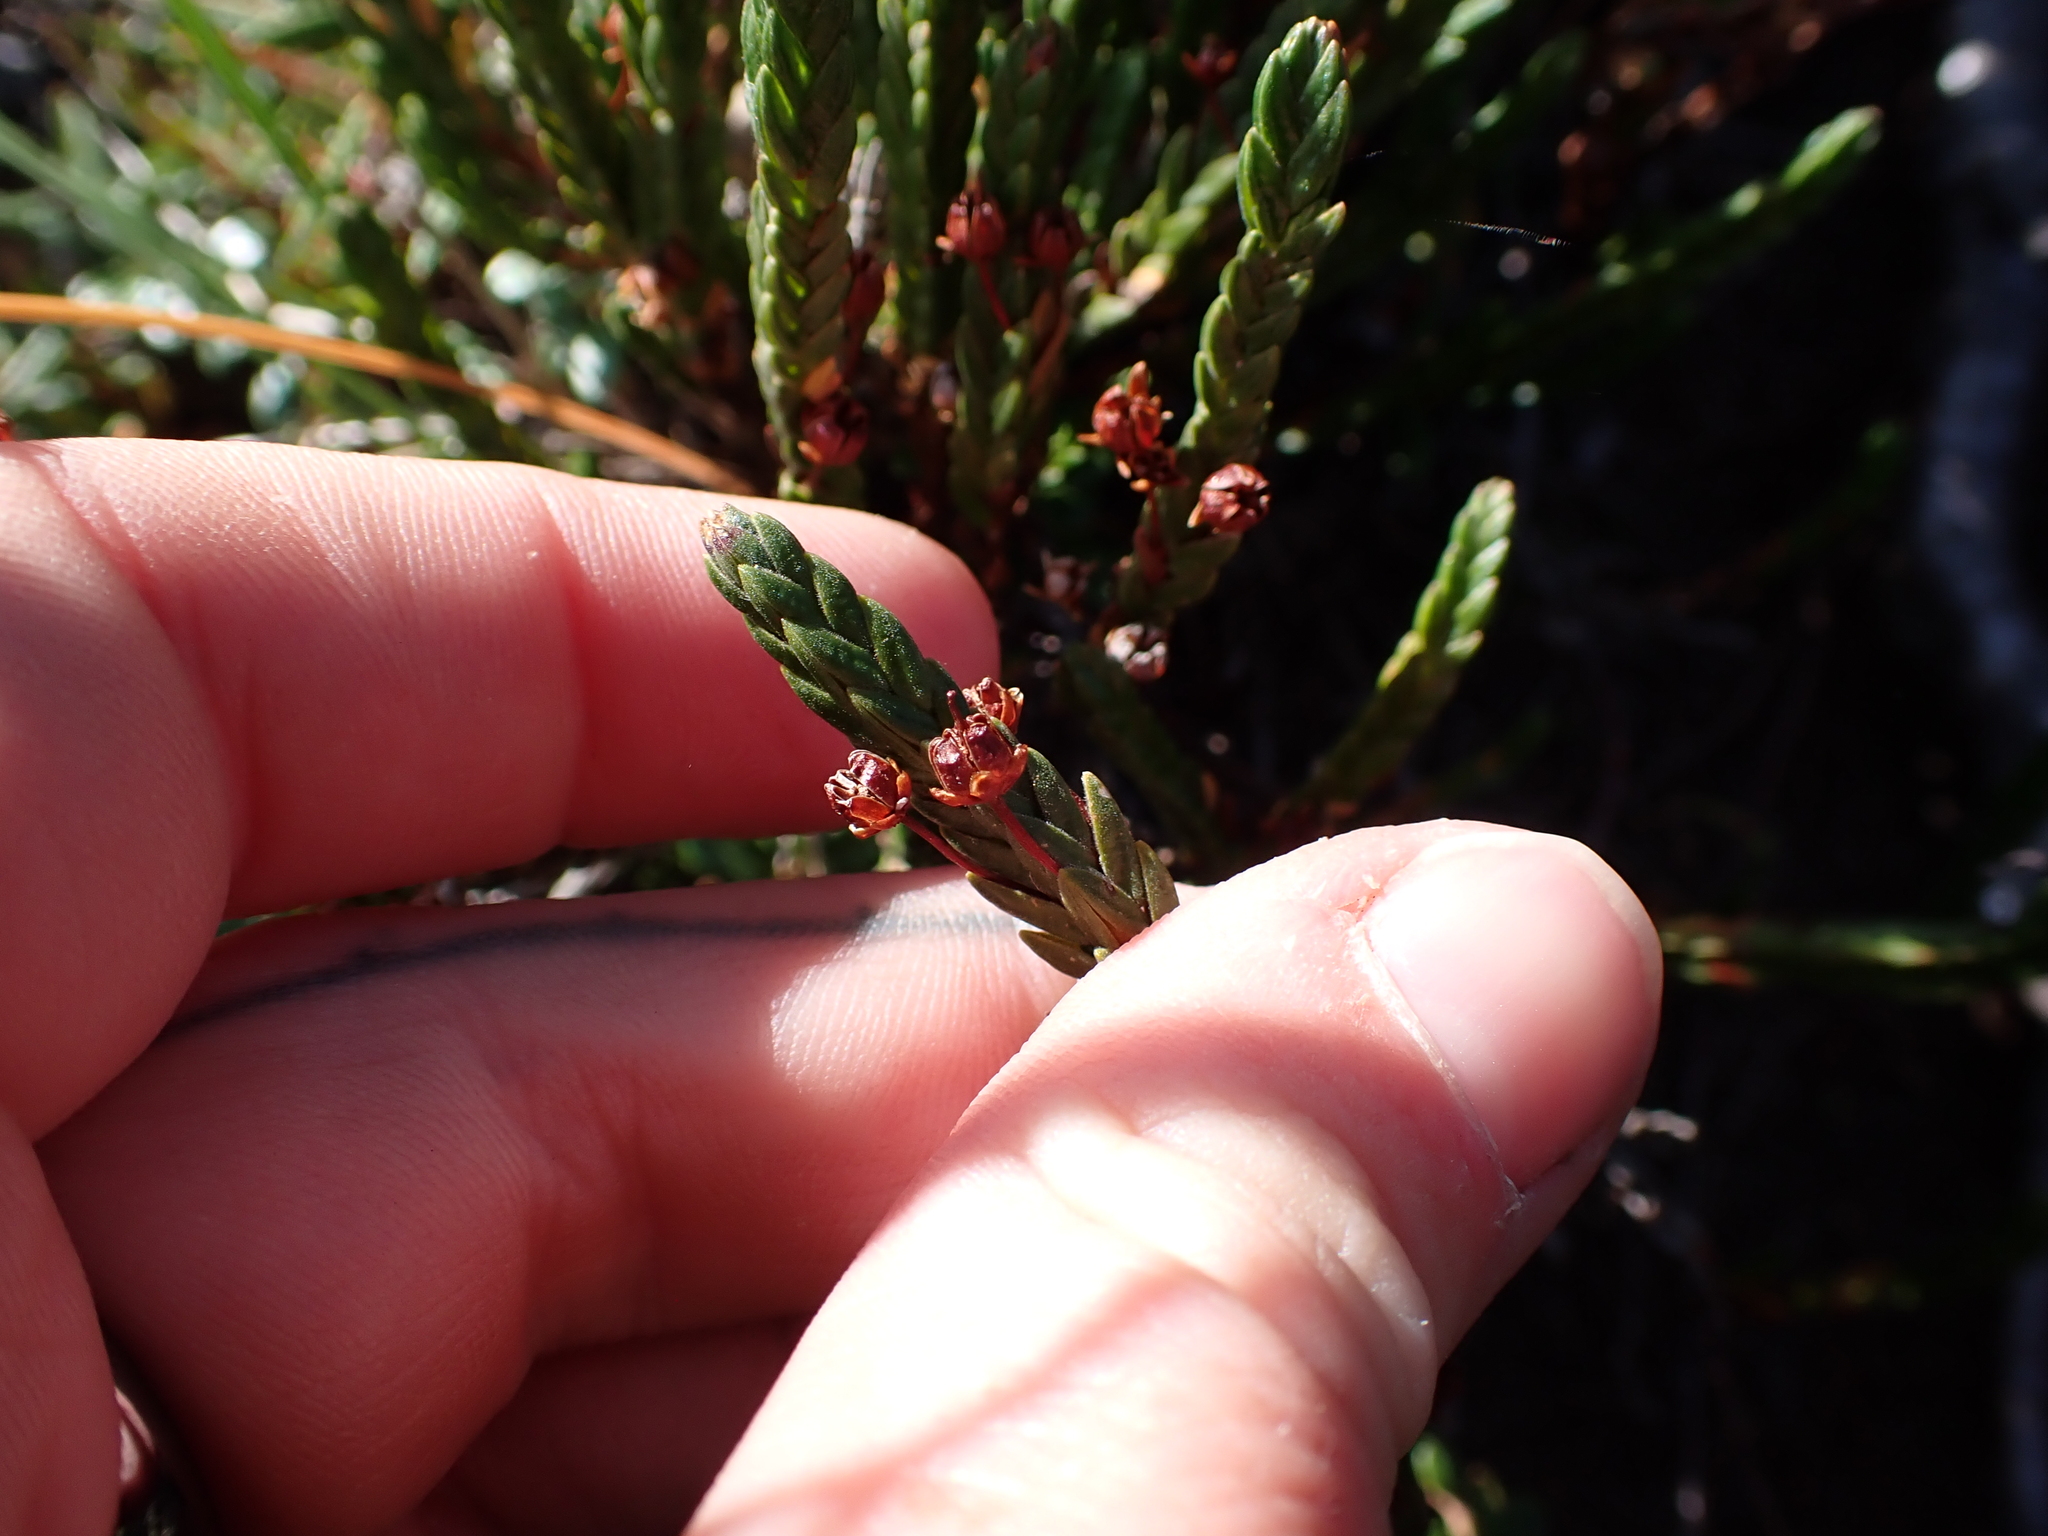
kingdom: Plantae
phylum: Tracheophyta
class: Magnoliopsida
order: Ericales
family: Ericaceae
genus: Cassiope
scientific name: Cassiope tetragona
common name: Arctic bell heather
